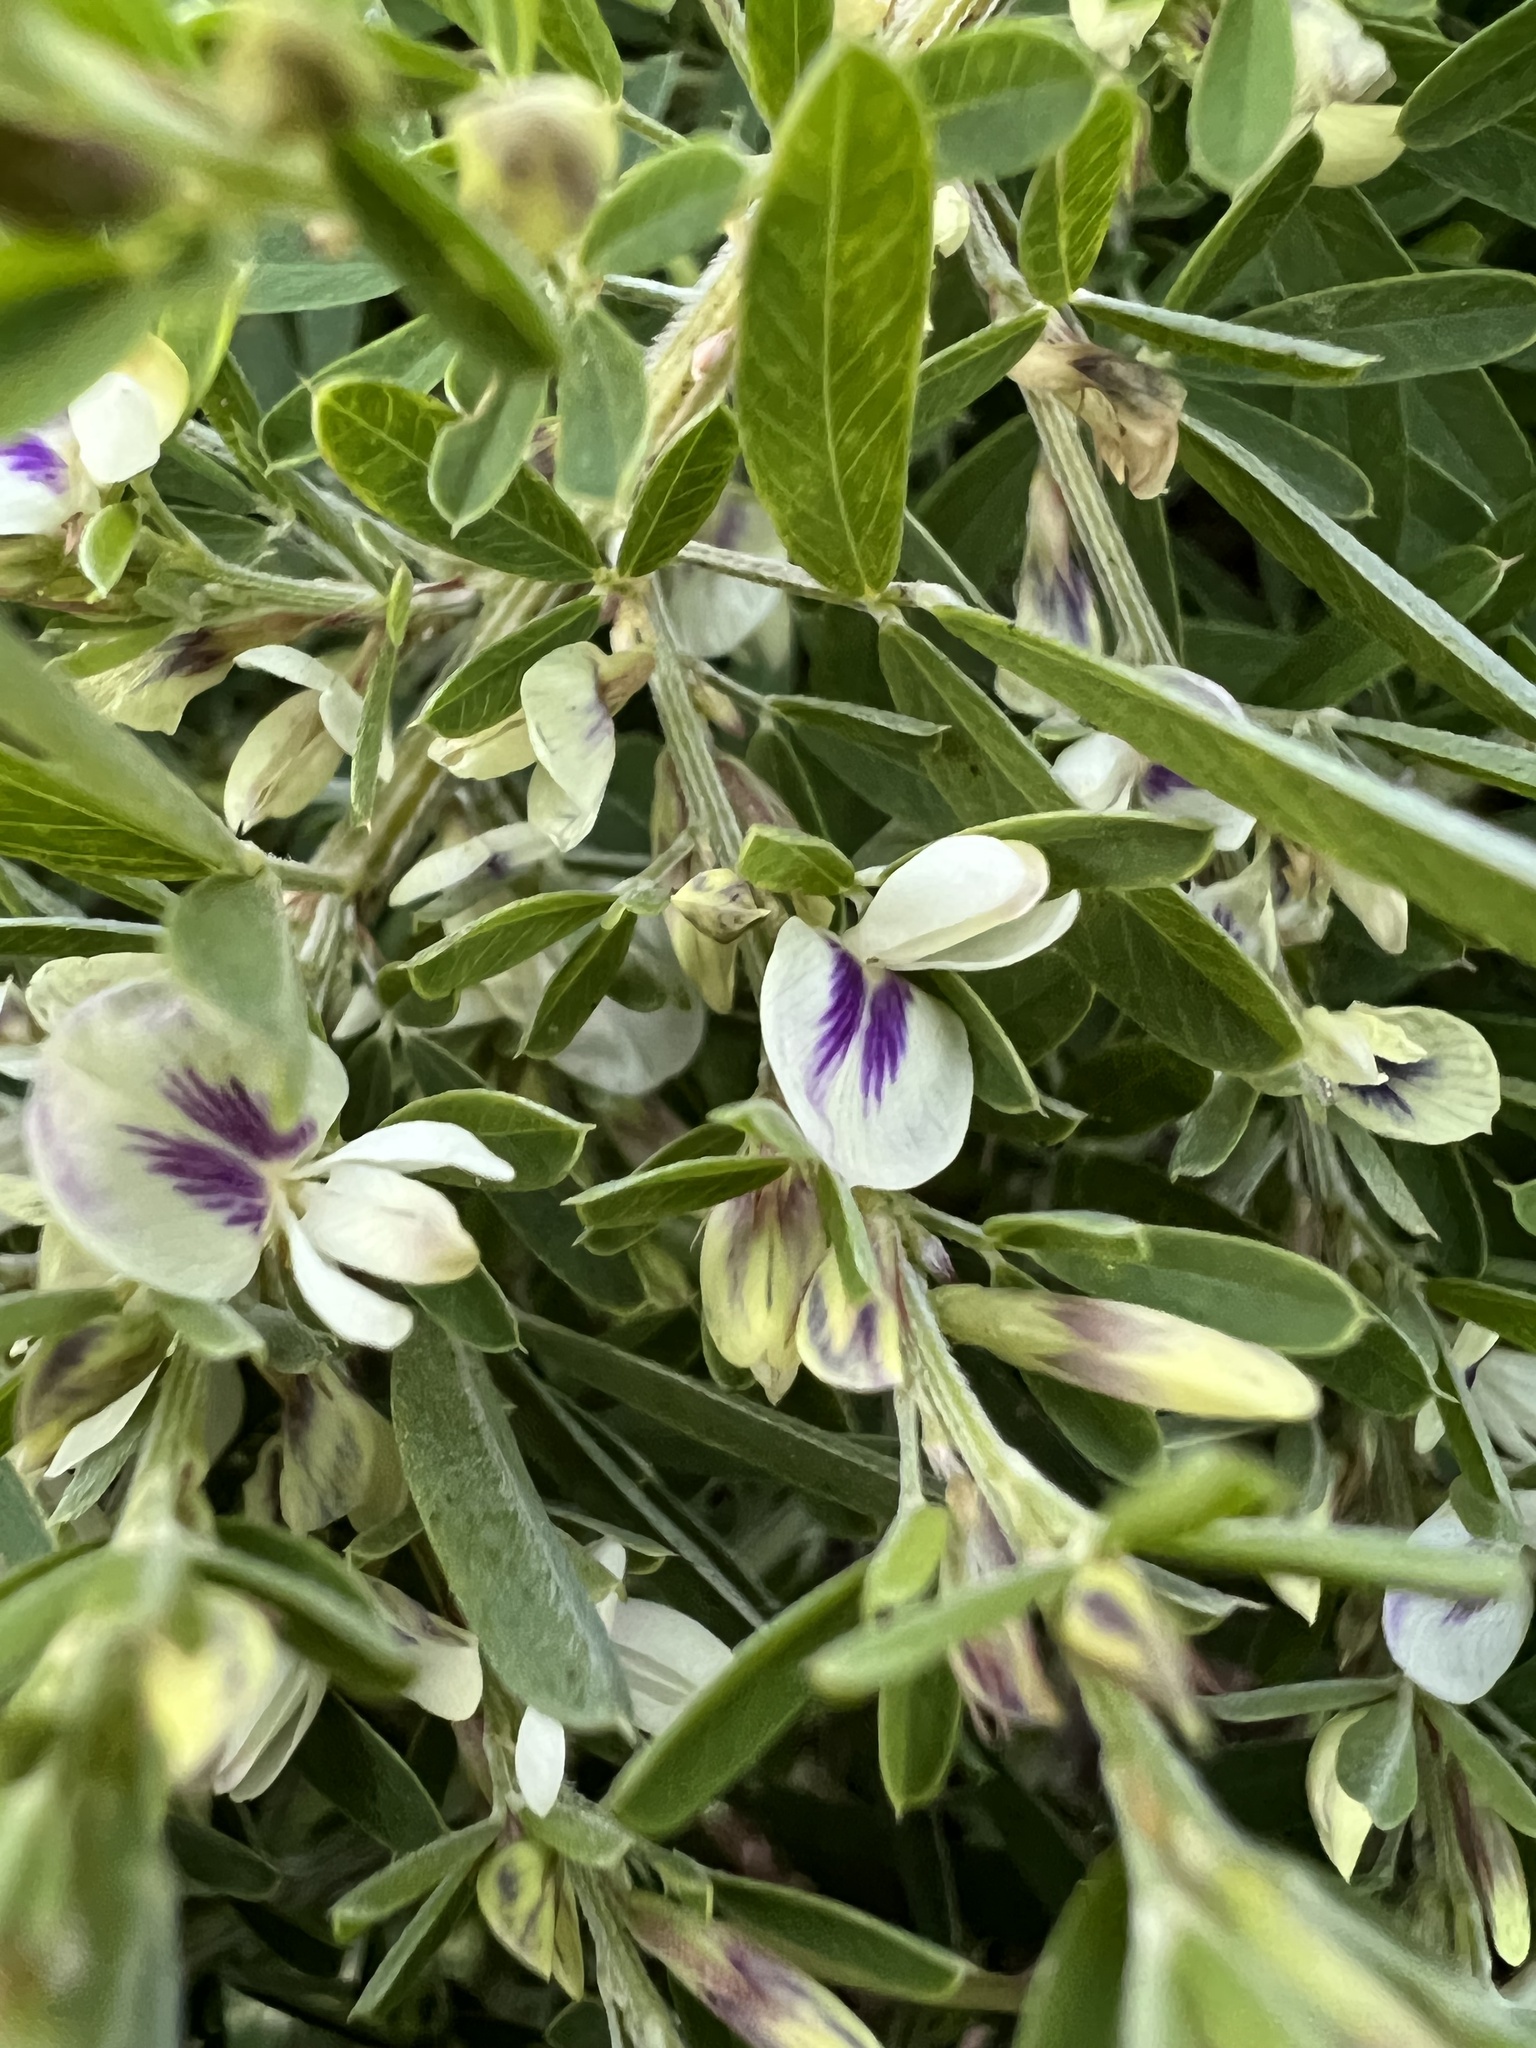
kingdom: Plantae
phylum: Tracheophyta
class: Magnoliopsida
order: Fabales
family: Fabaceae
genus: Lespedeza
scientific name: Lespedeza cuneata
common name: Chinese bush-clover
